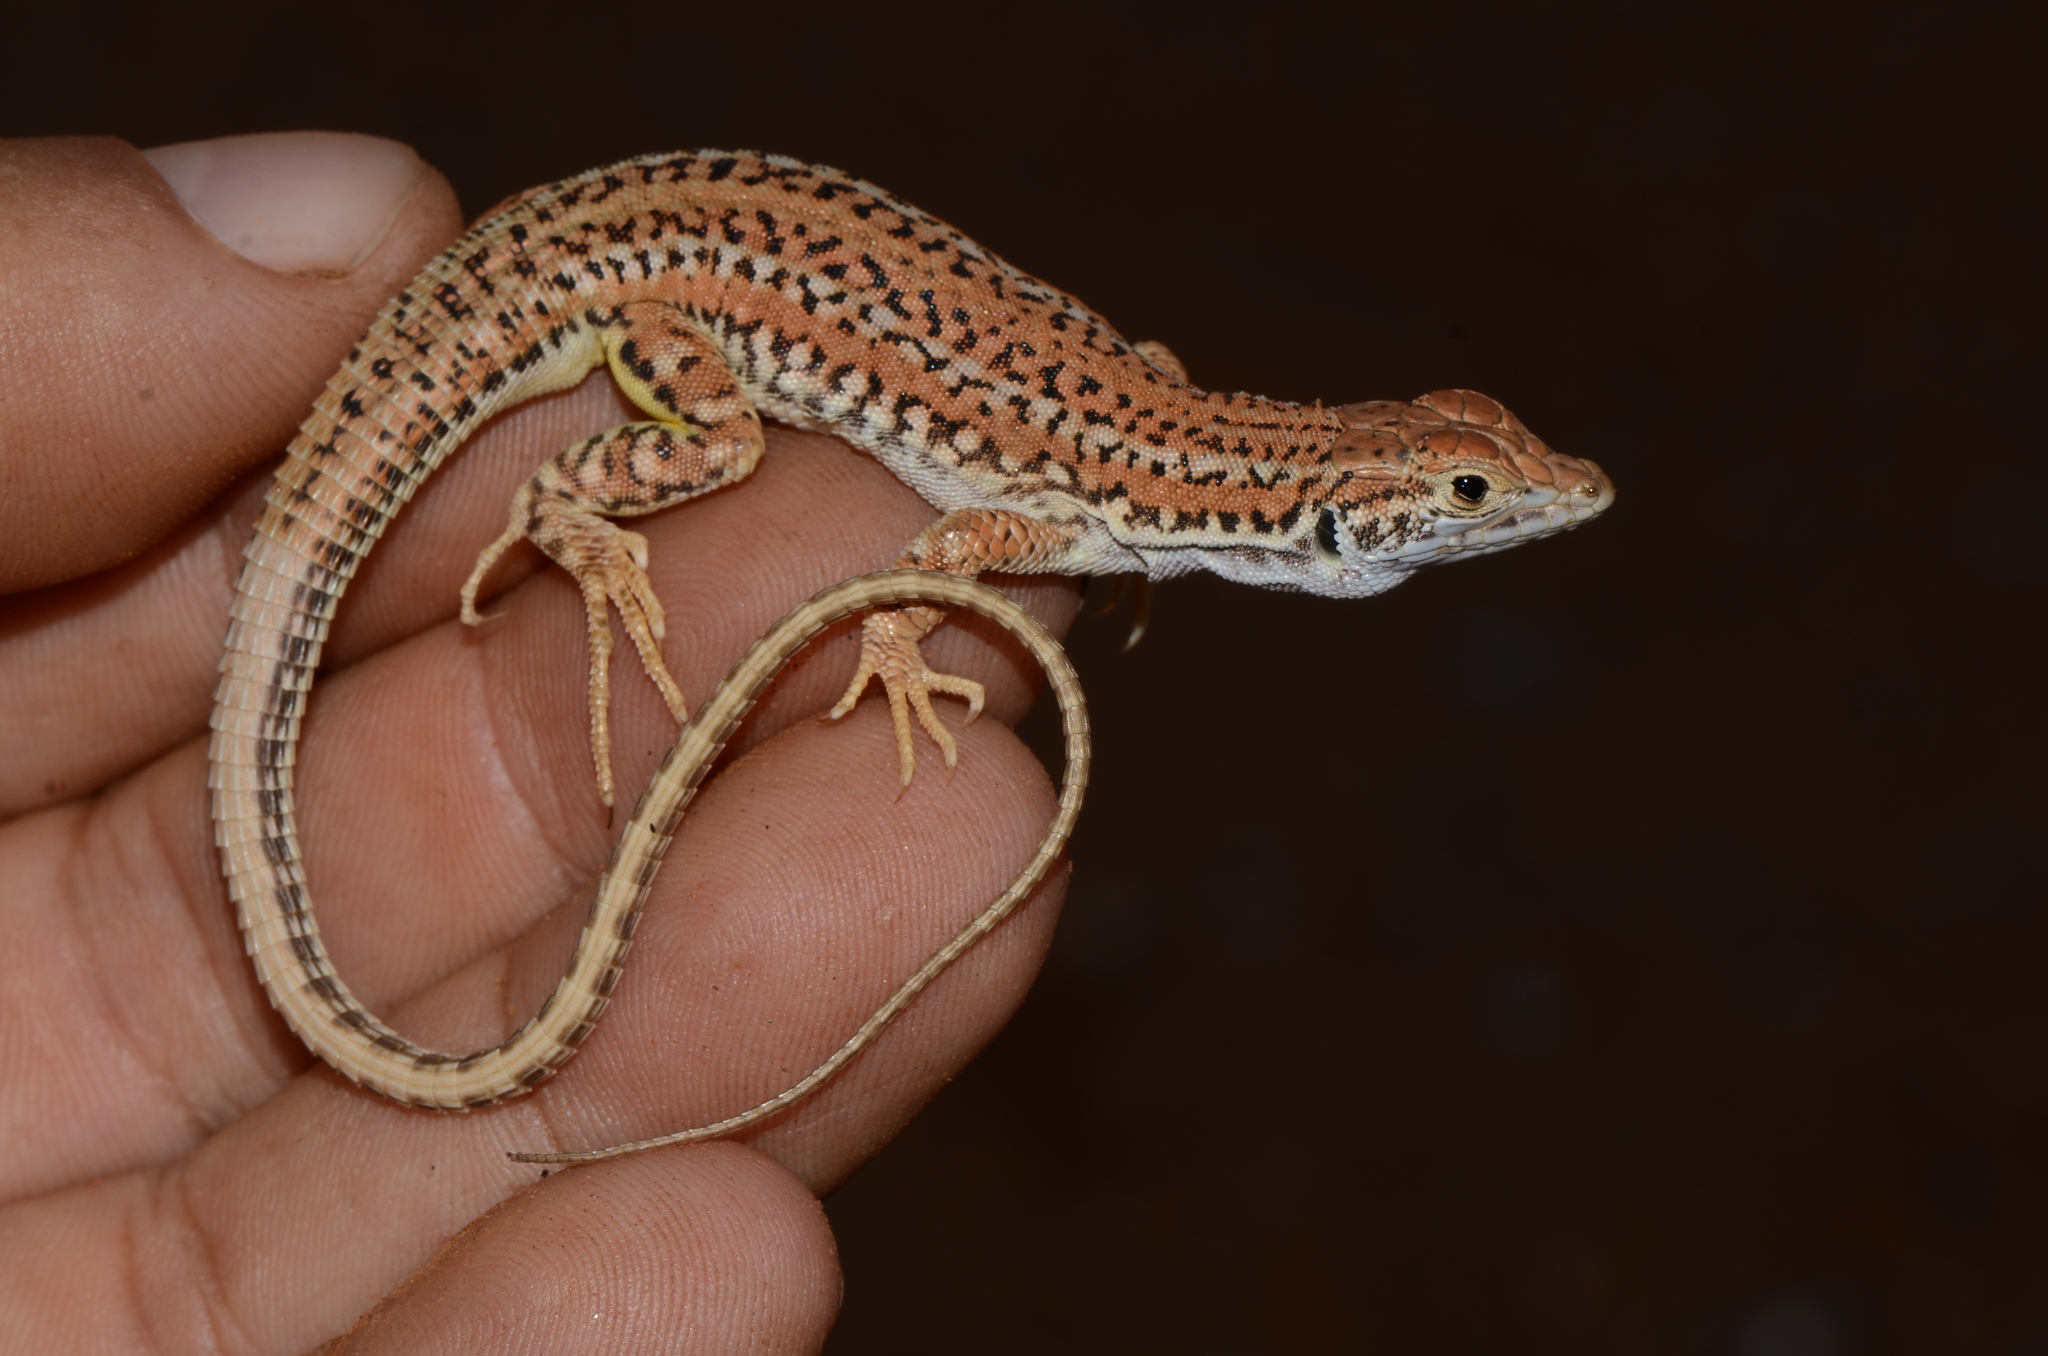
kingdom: Animalia
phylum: Chordata
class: Squamata
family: Lacertidae
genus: Meroles
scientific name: Meroles suborbitalis
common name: Spotted sand lizard
